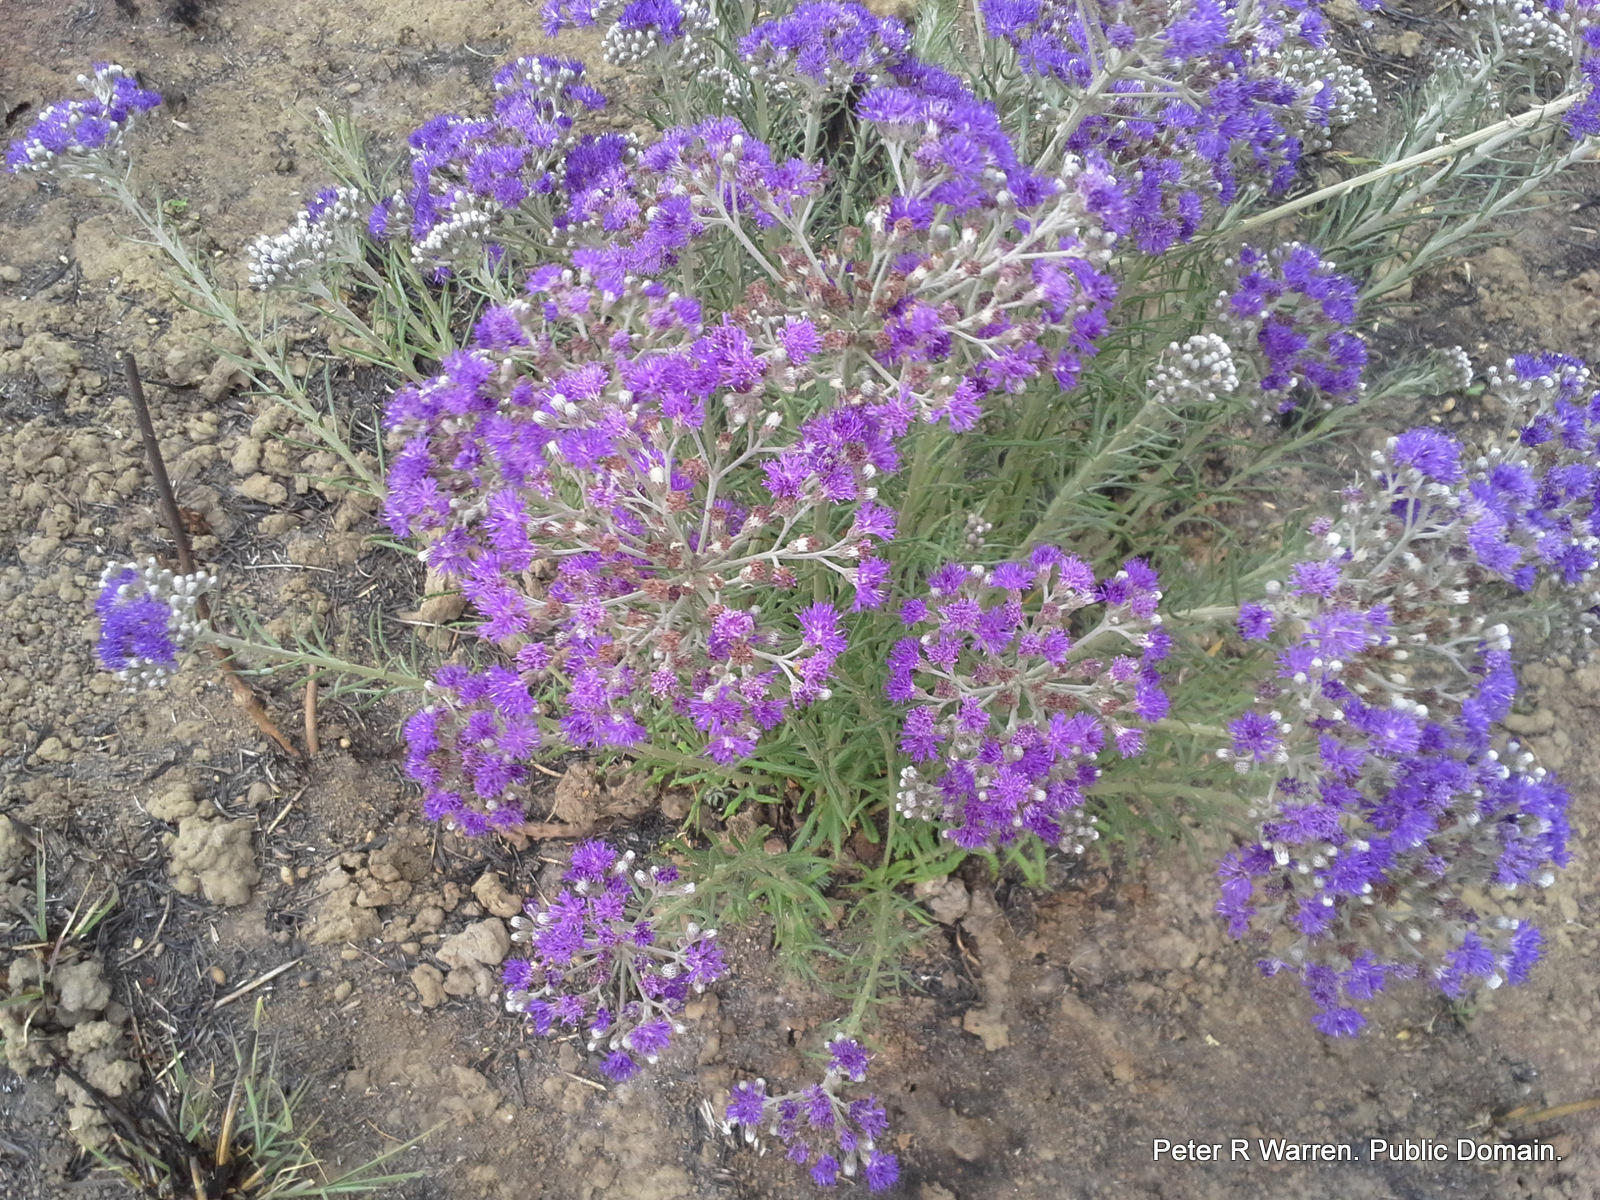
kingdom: Plantae
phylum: Tracheophyta
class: Magnoliopsida
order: Asterales
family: Asteraceae
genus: Hilliardiella
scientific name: Hilliardiella capensis
